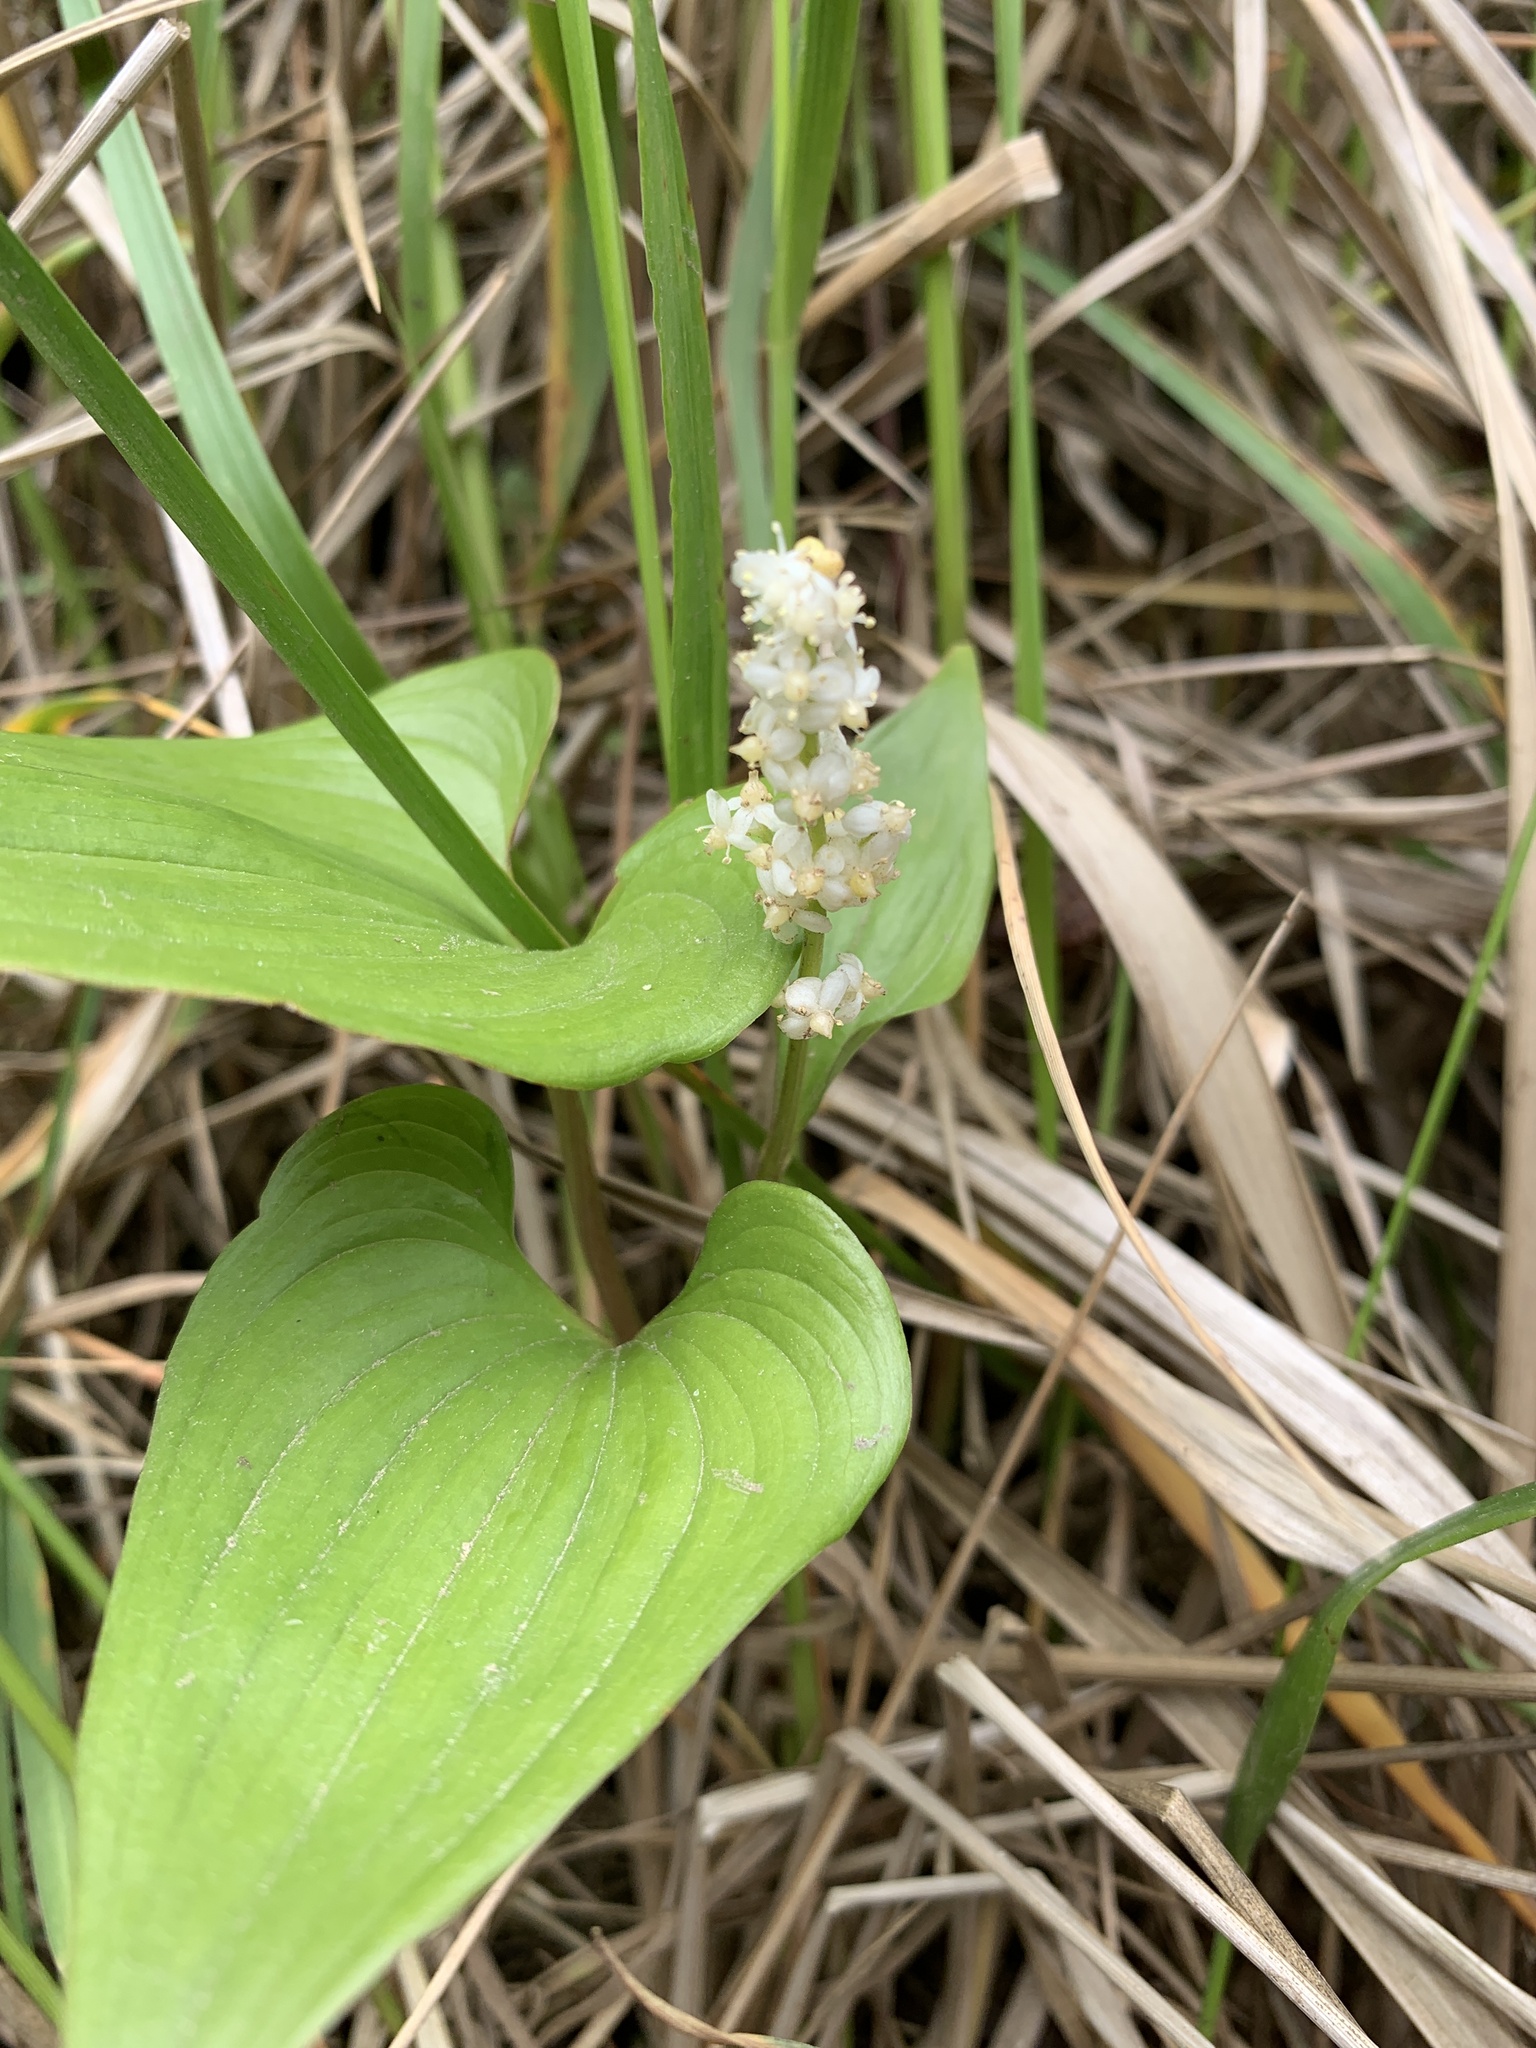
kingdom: Plantae
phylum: Tracheophyta
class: Liliopsida
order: Asparagales
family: Asparagaceae
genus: Maianthemum
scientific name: Maianthemum dilatatum
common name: False lily-of-the-valley
